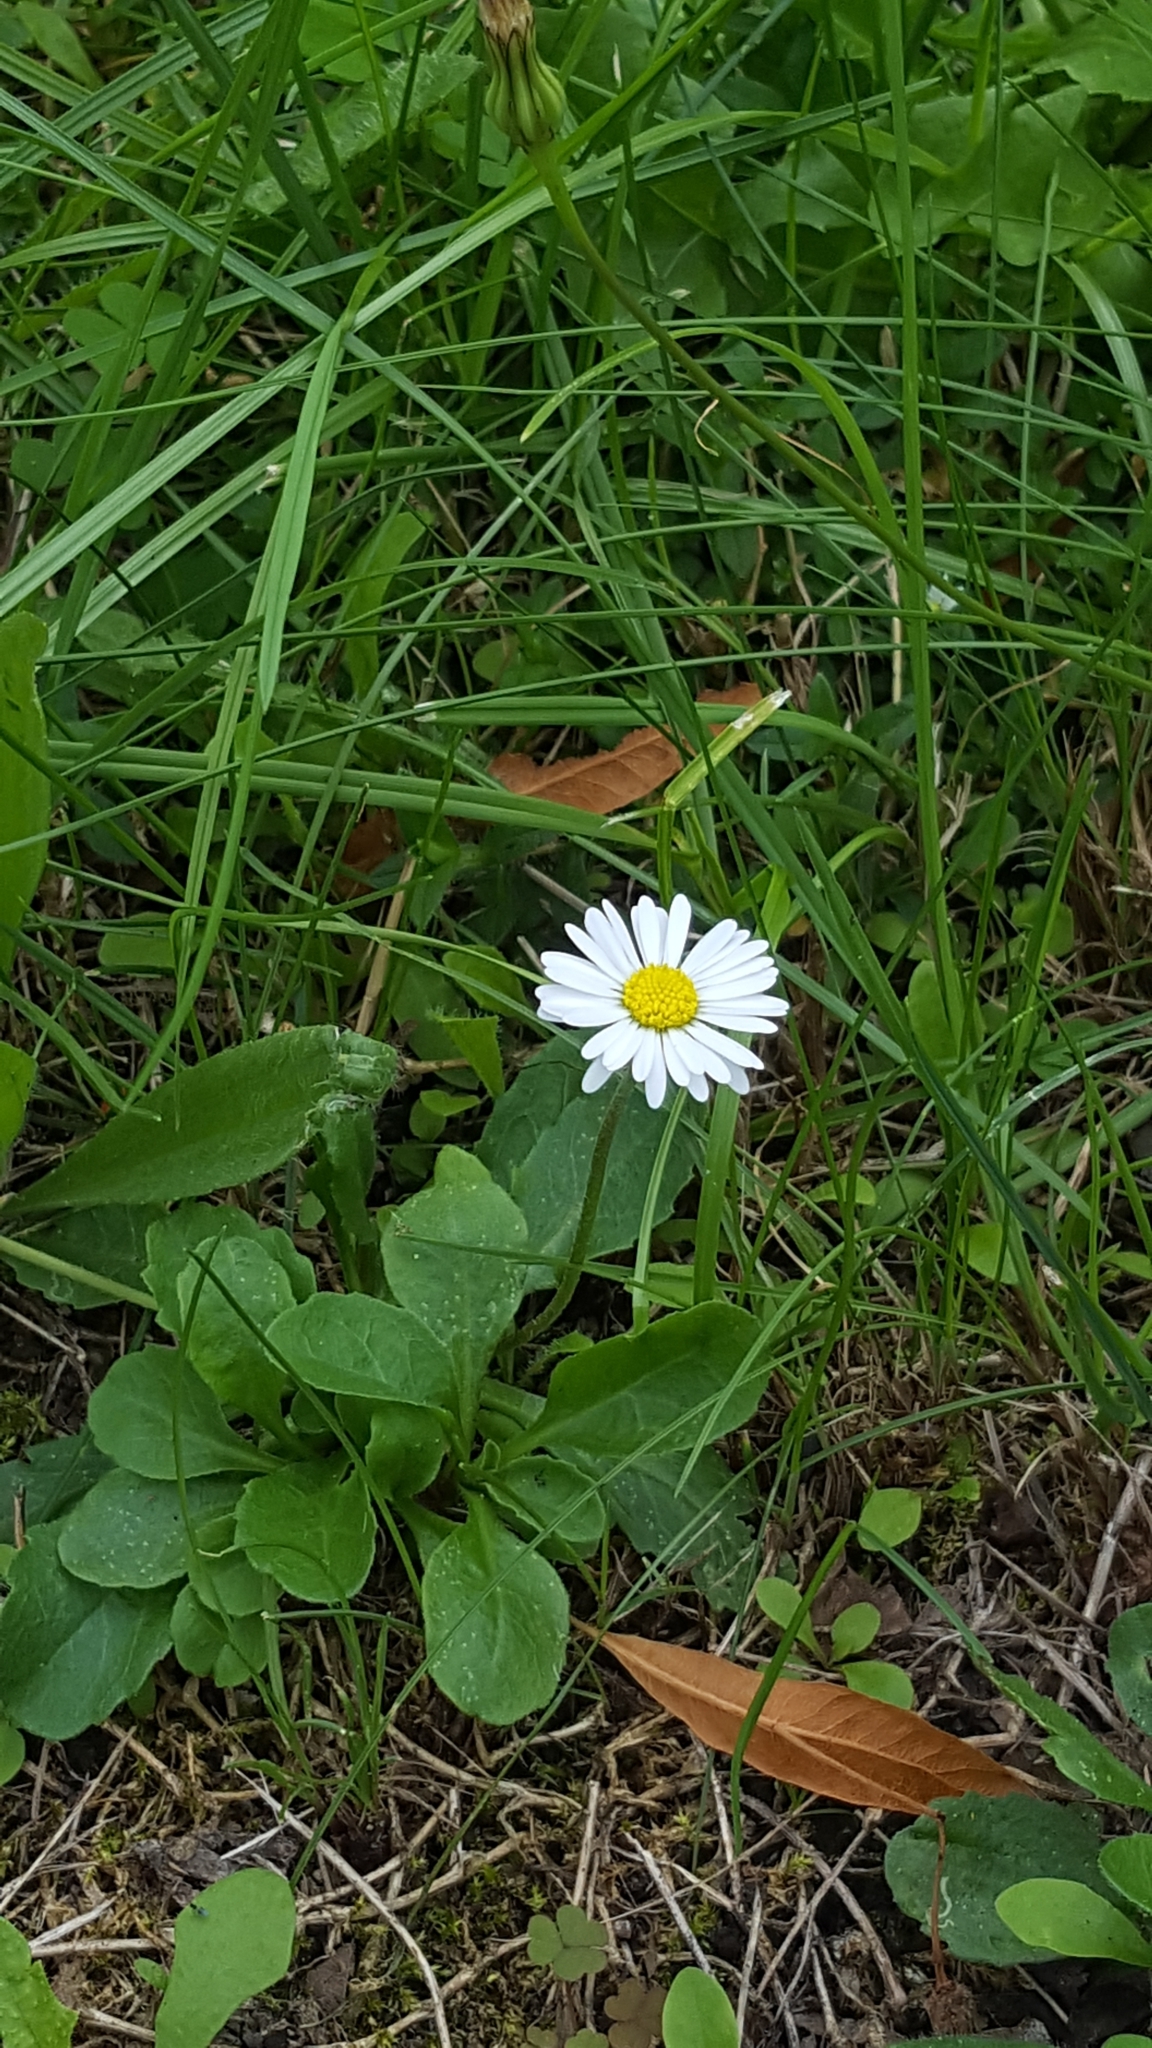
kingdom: Plantae
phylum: Tracheophyta
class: Magnoliopsida
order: Asterales
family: Asteraceae
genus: Bellis
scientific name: Bellis perennis
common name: Lawndaisy
